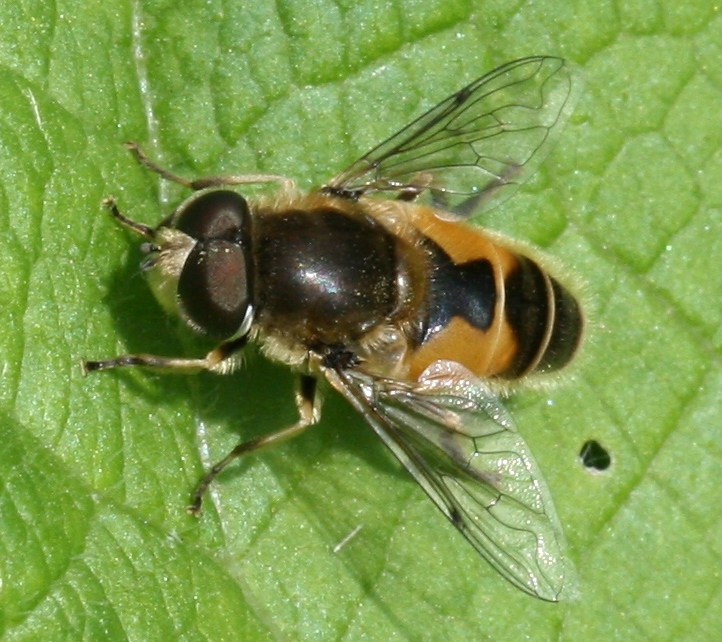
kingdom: Animalia
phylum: Arthropoda
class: Insecta
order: Diptera
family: Syrphidae
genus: Eristalis
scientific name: Eristalis arbustorum
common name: Hover fly
